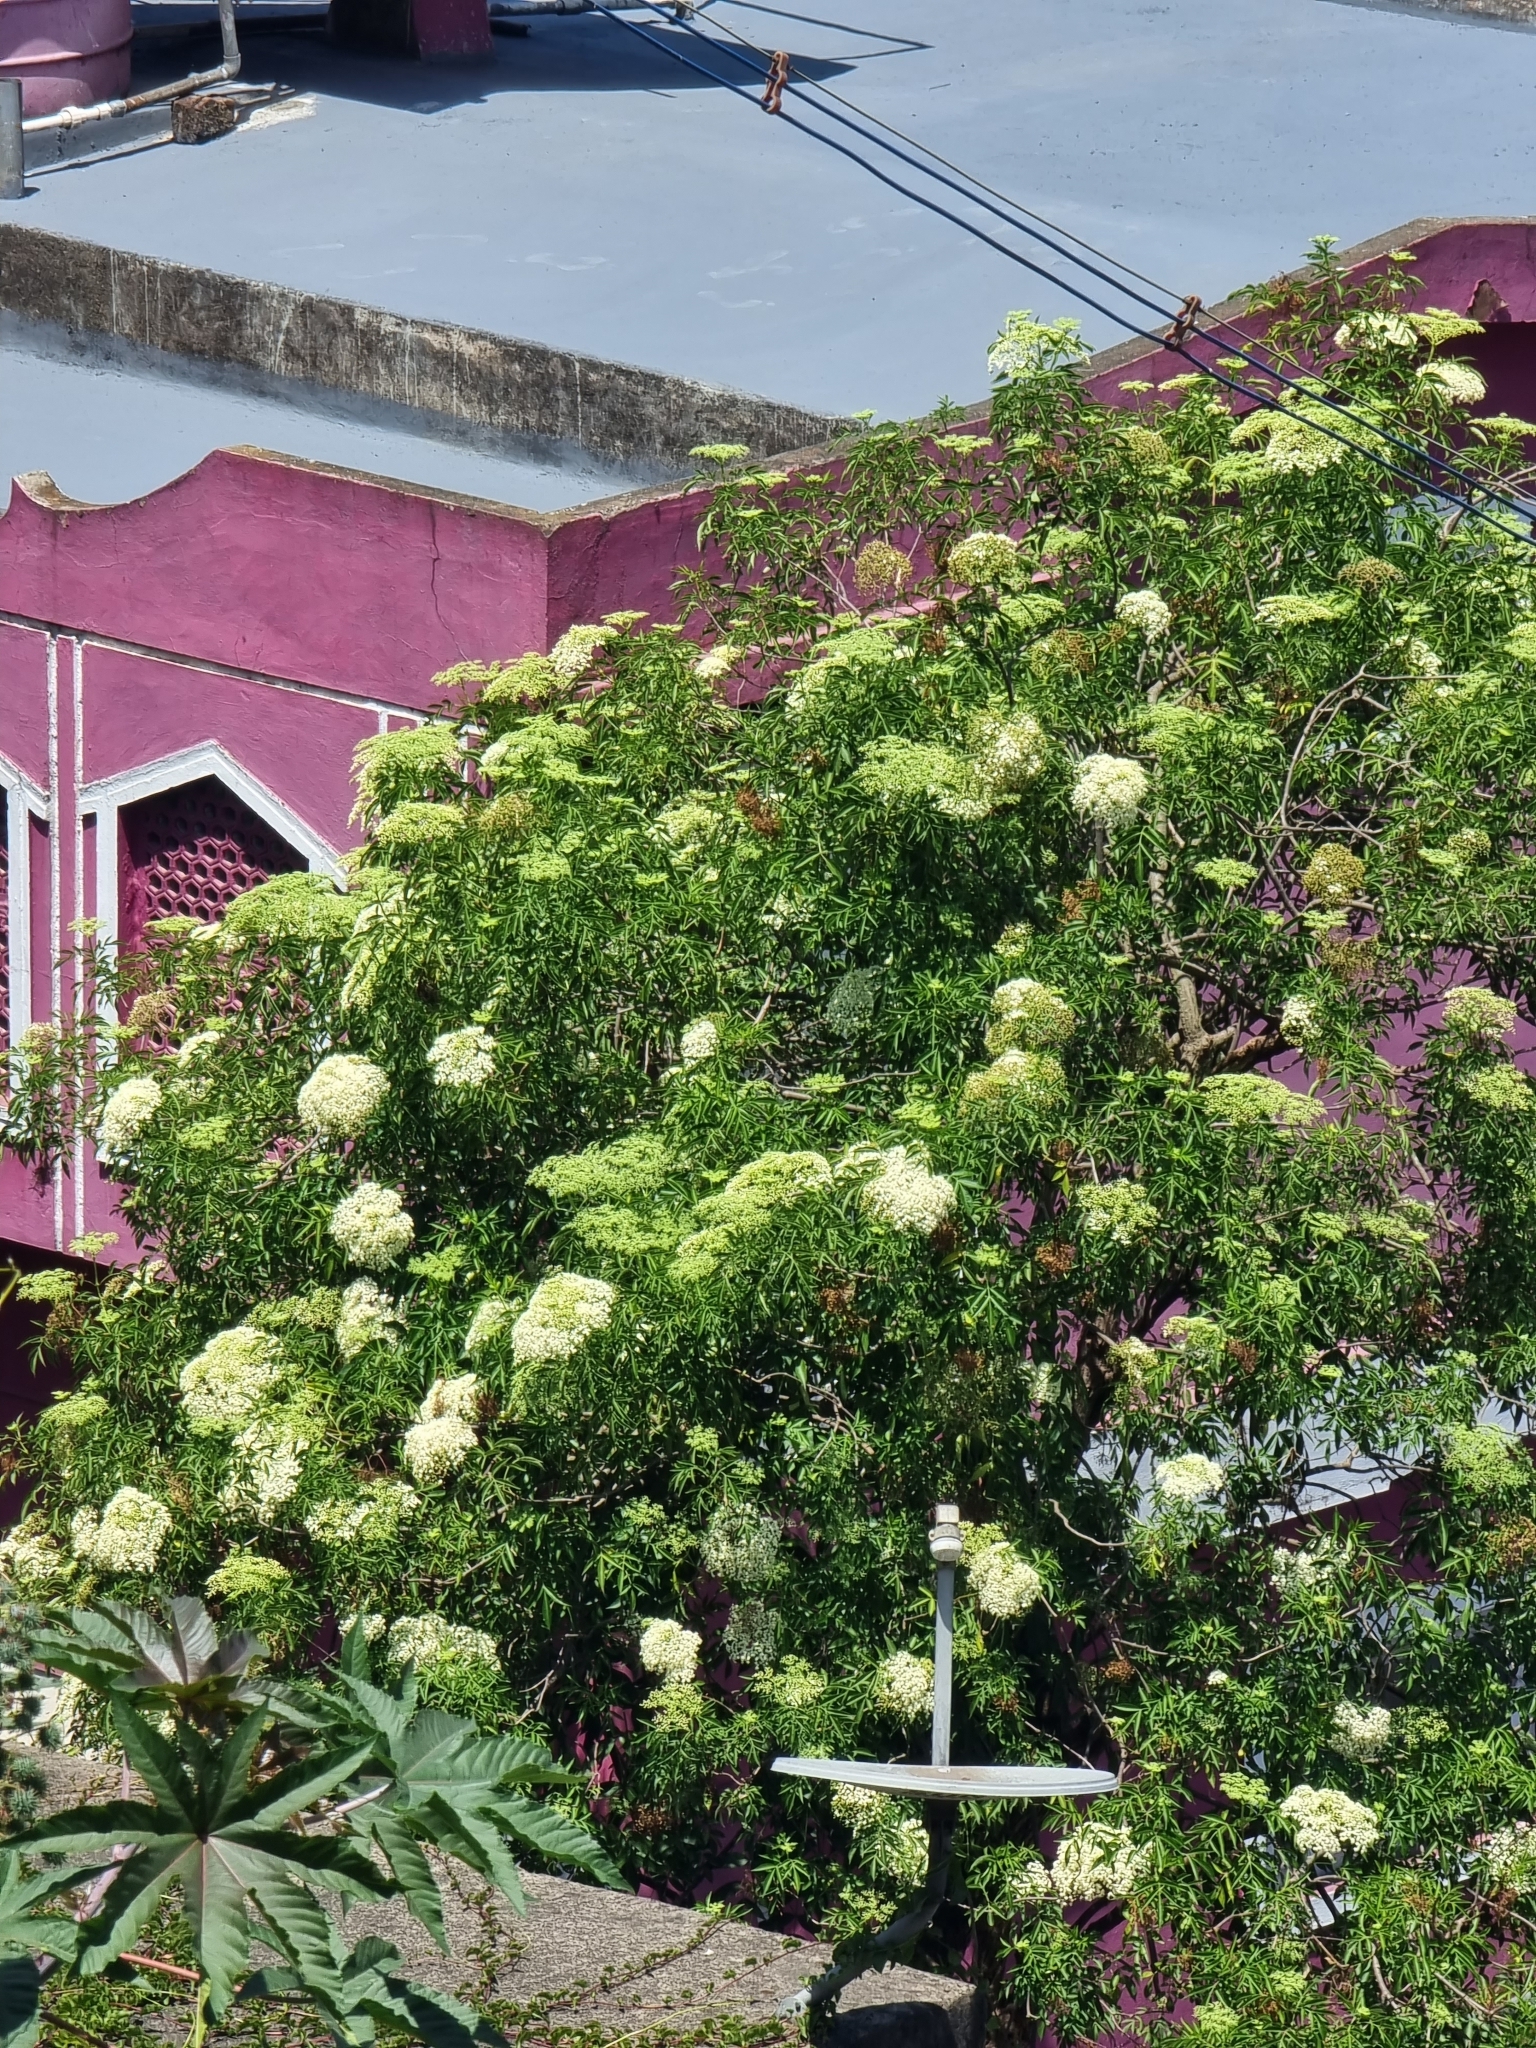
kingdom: Plantae
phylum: Tracheophyta
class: Magnoliopsida
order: Dipsacales
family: Viburnaceae
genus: Sambucus
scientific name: Sambucus canadensis
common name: American elder
